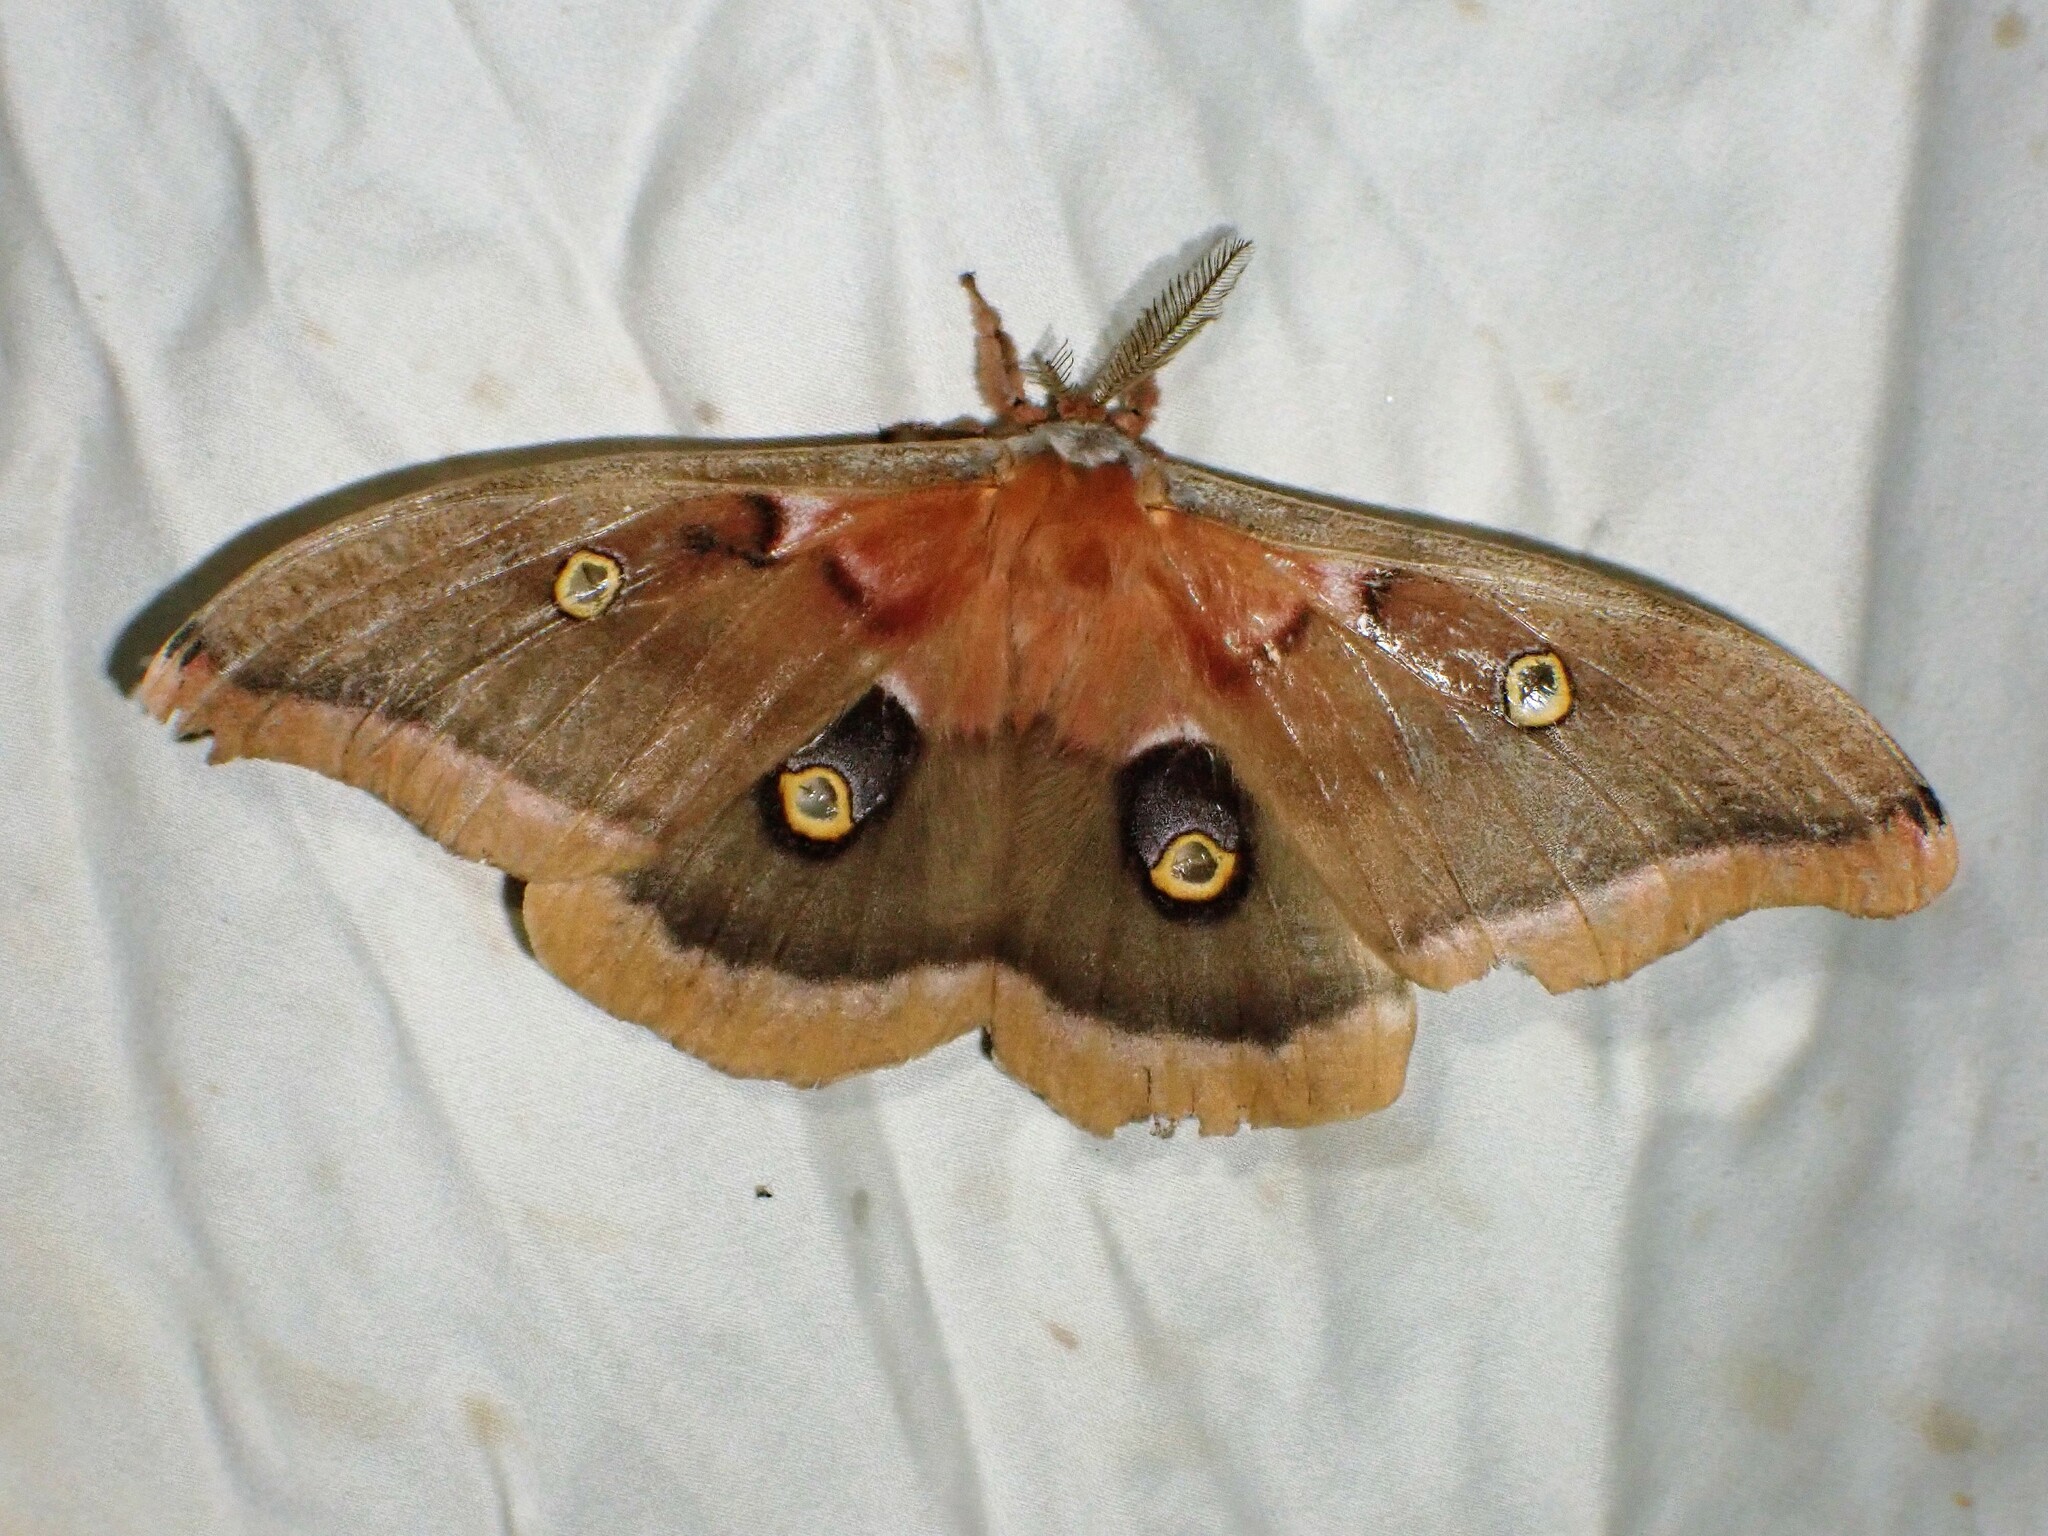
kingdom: Animalia
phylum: Arthropoda
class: Insecta
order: Lepidoptera
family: Saturniidae
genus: Antheraea
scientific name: Antheraea polyphemus
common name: Polyphemus moth
